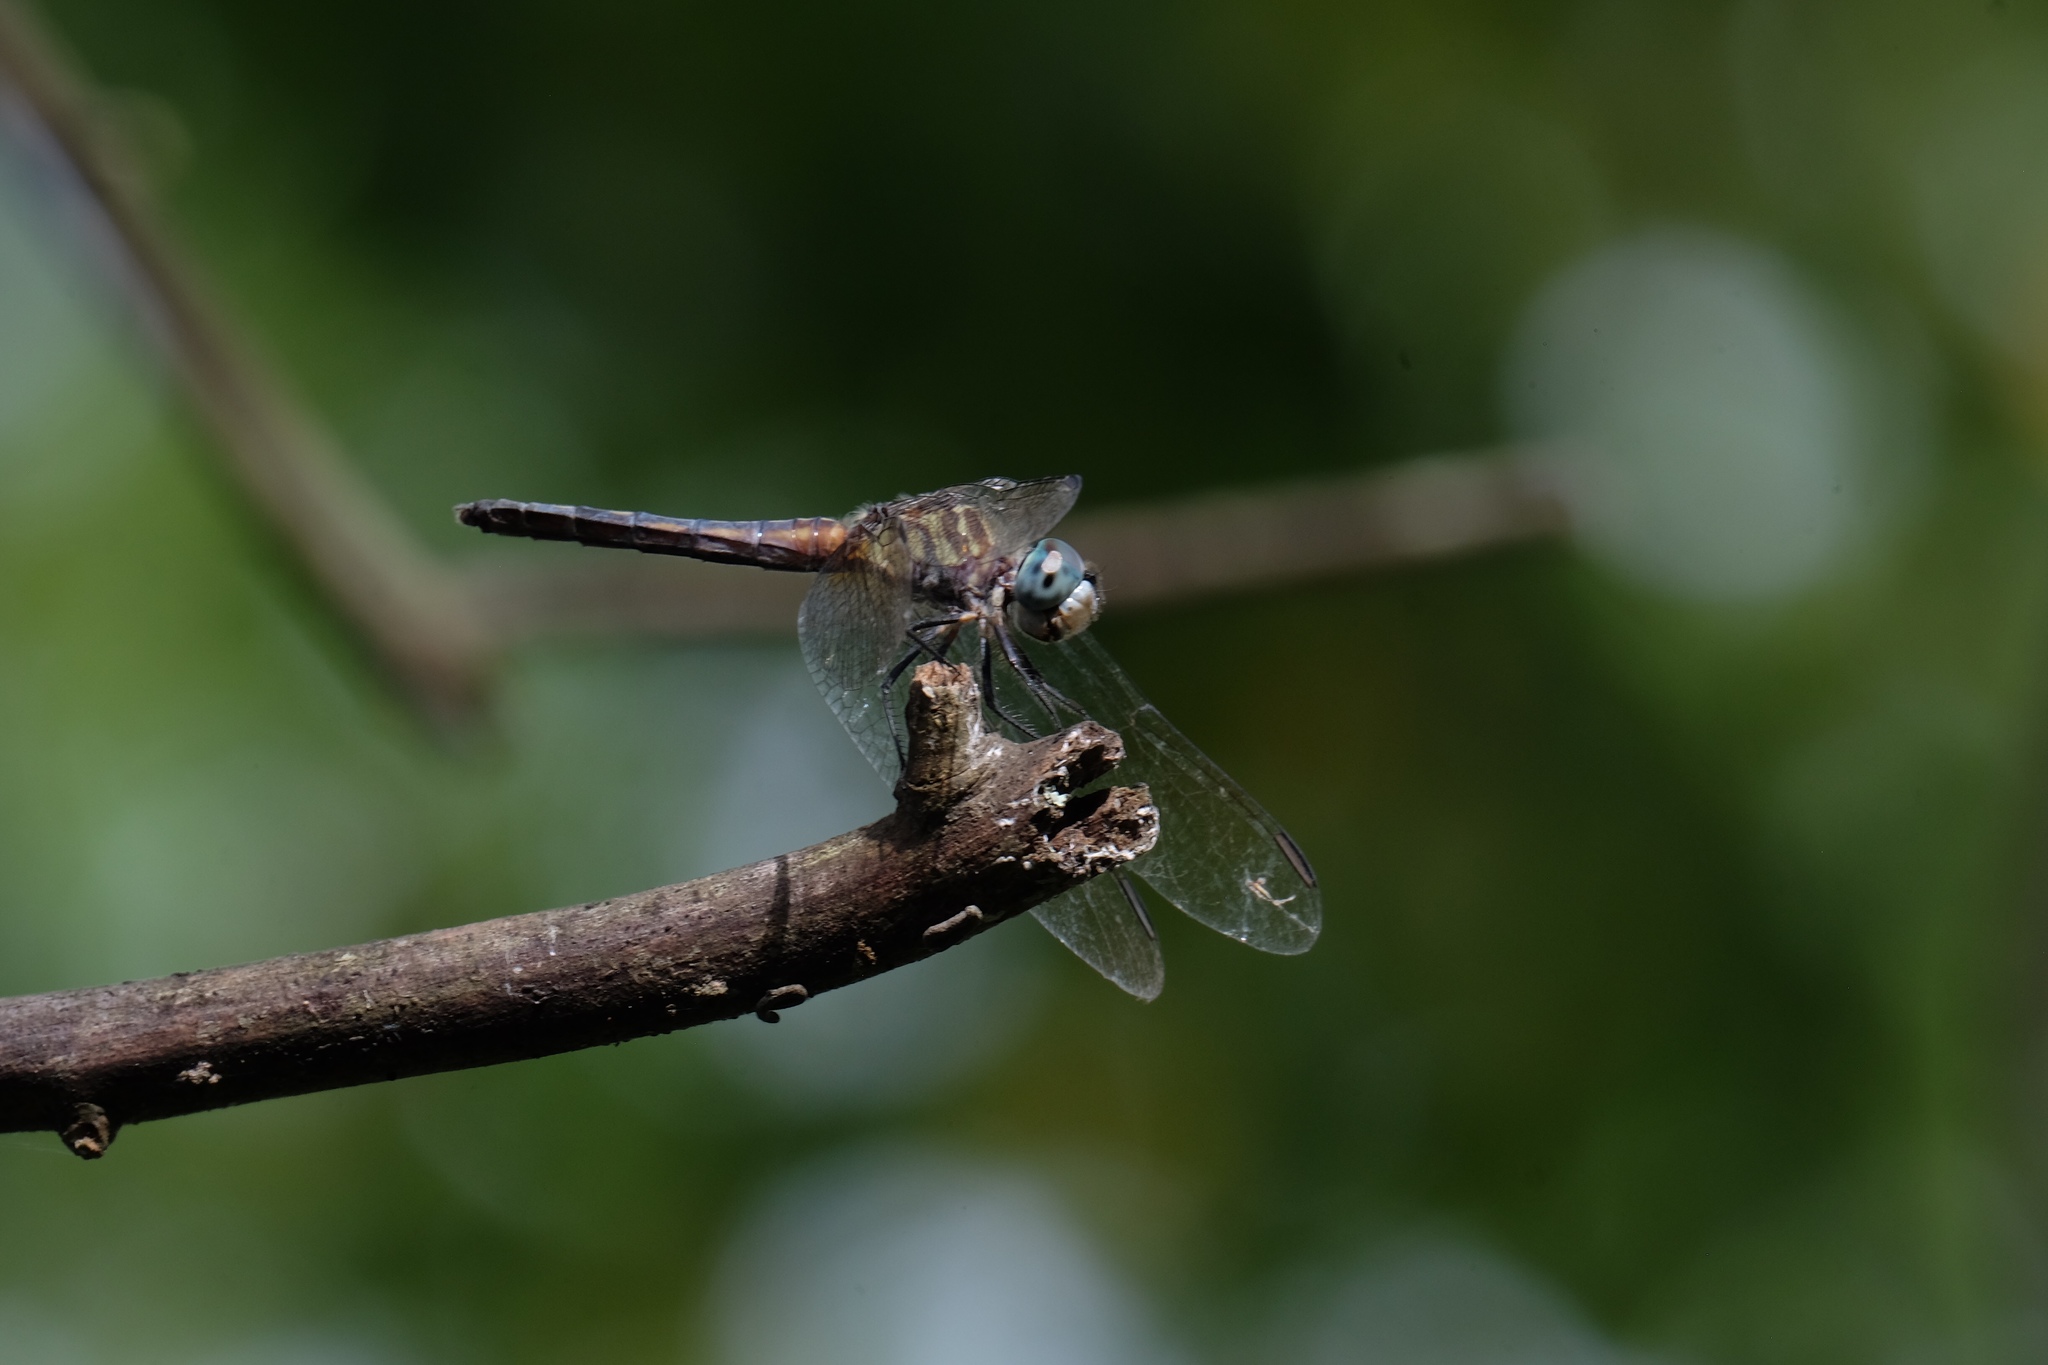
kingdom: Animalia
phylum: Arthropoda
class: Insecta
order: Odonata
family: Libellulidae
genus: Pachydiplax
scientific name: Pachydiplax longipennis
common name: Blue dasher
